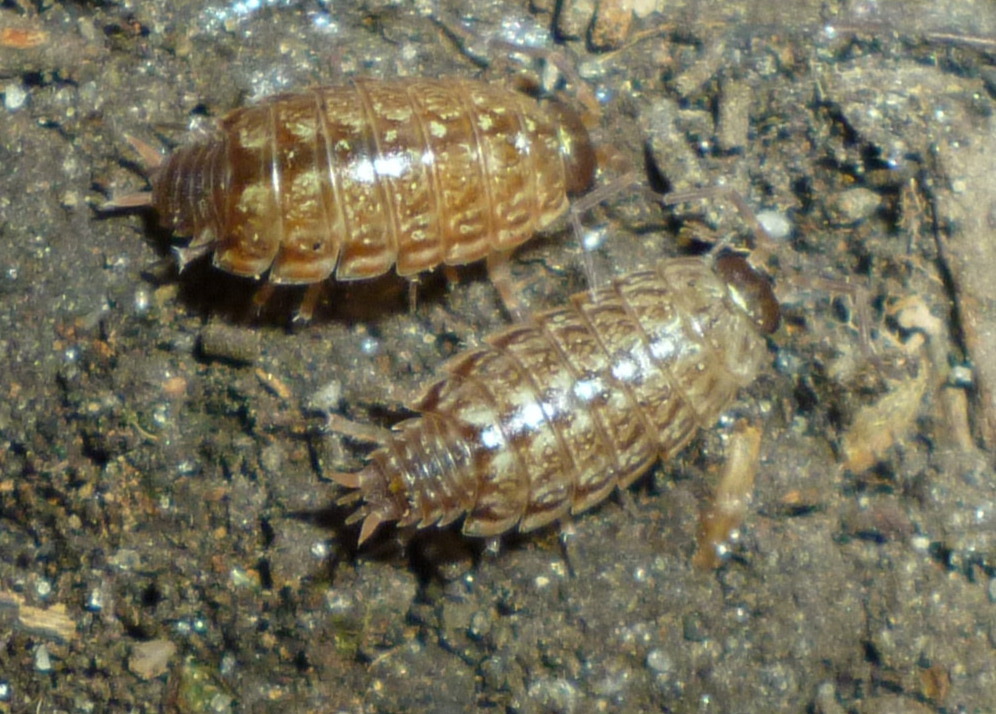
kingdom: Animalia
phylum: Arthropoda
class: Malacostraca
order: Isopoda
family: Philosciidae
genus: Philoscia
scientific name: Philoscia muscorum
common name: Common striped woodlouse
